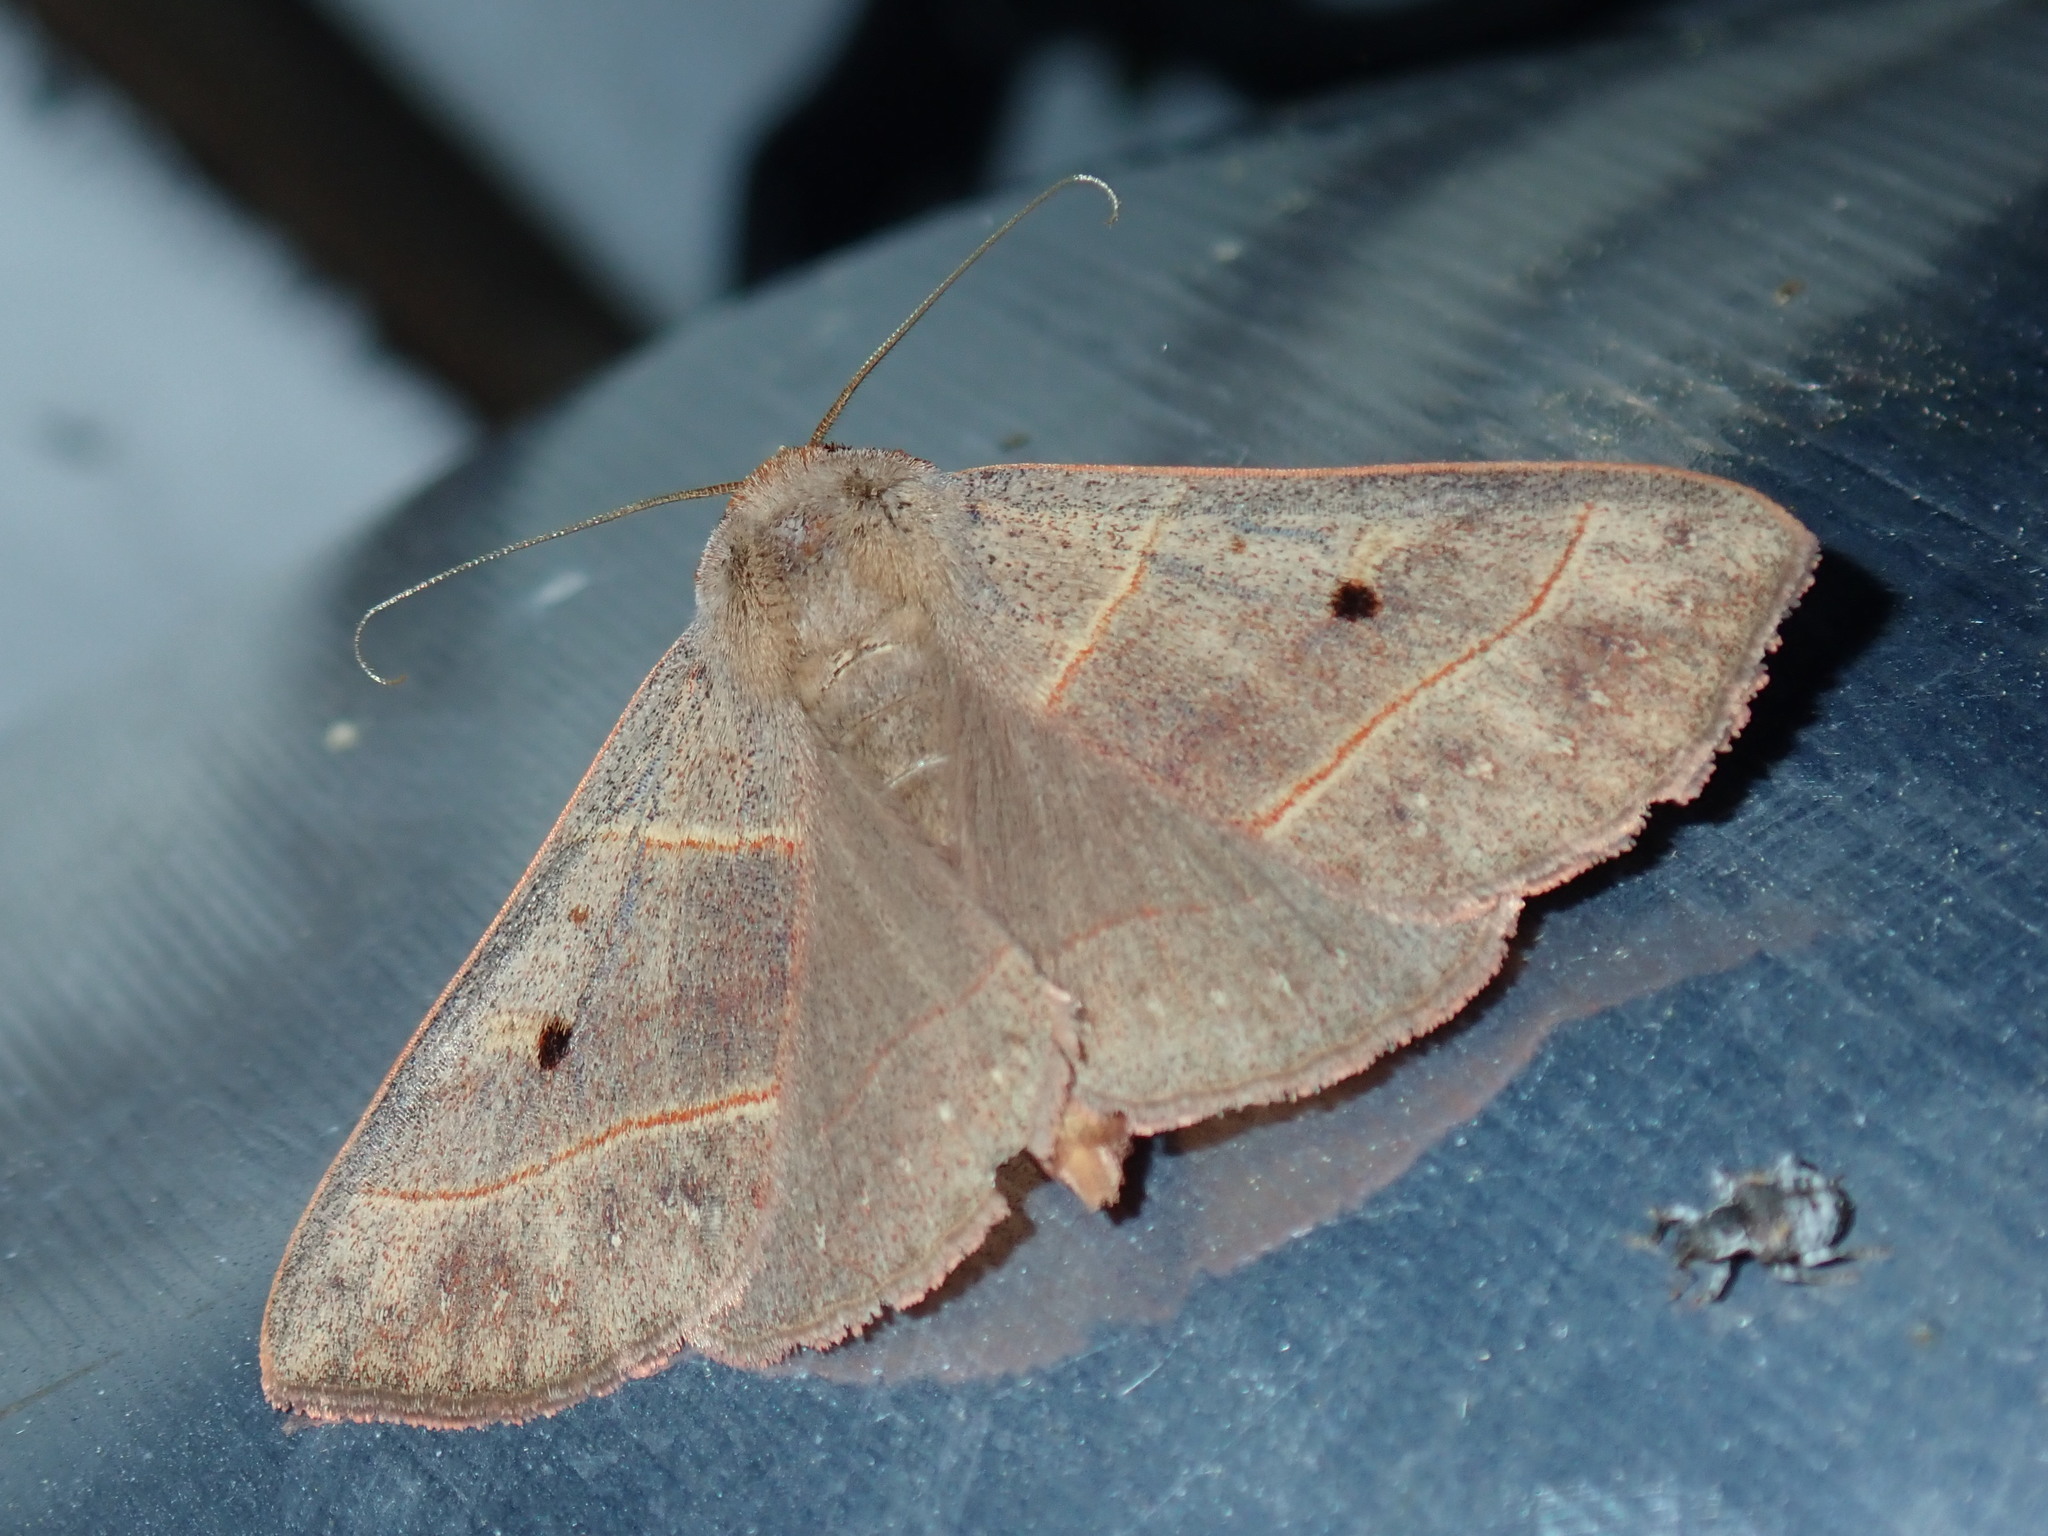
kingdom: Animalia
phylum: Arthropoda
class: Insecta
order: Lepidoptera
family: Erebidae
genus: Panopoda
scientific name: Panopoda rufimargo
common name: Red-lined panopoda moth
